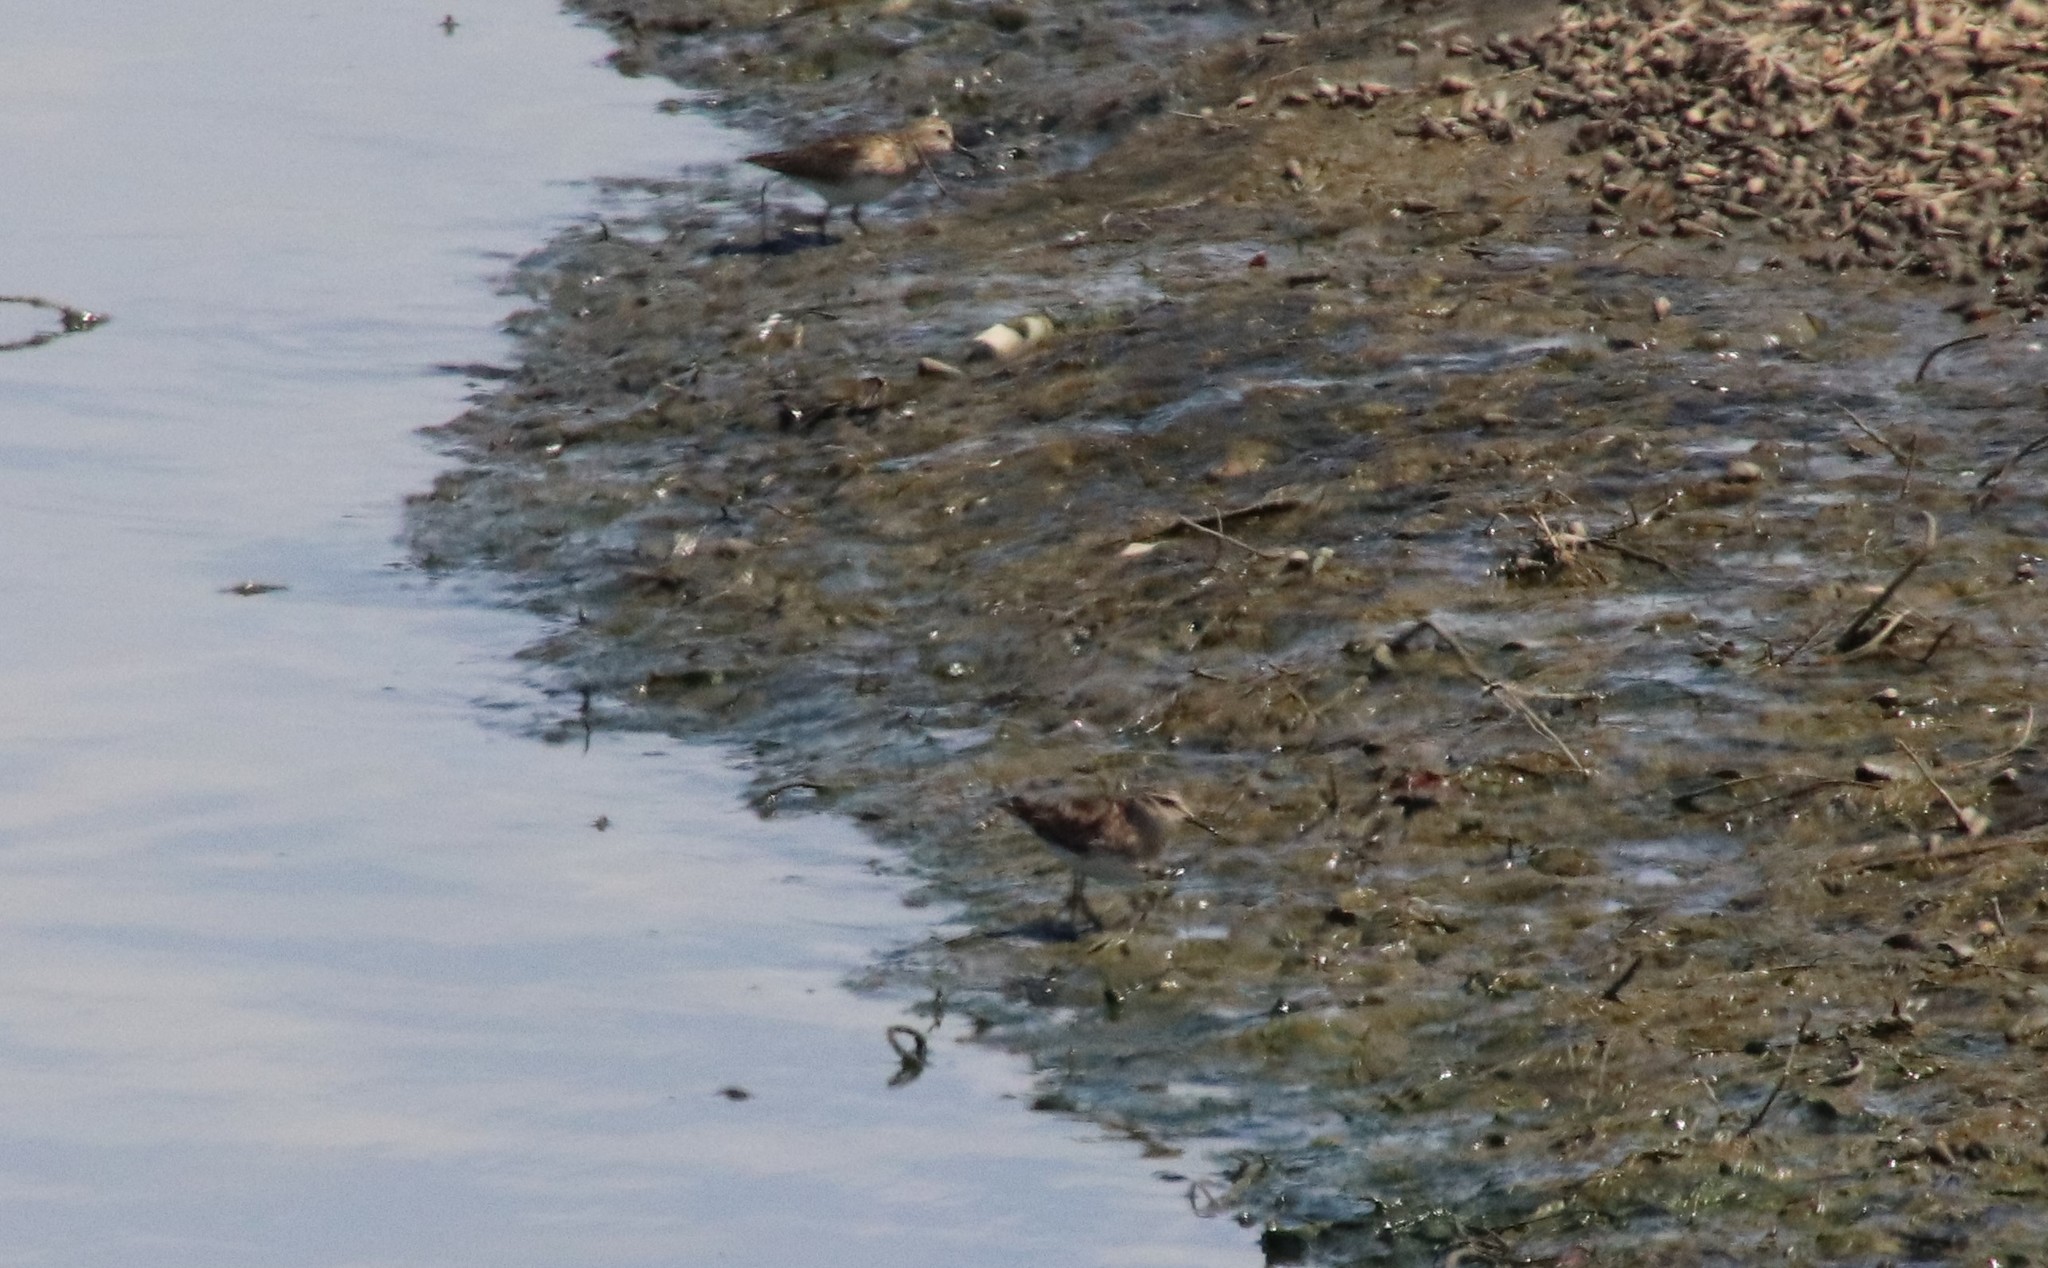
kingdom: Animalia
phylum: Chordata
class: Aves
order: Charadriiformes
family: Scolopacidae
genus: Calidris
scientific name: Calidris minutilla
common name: Least sandpiper
